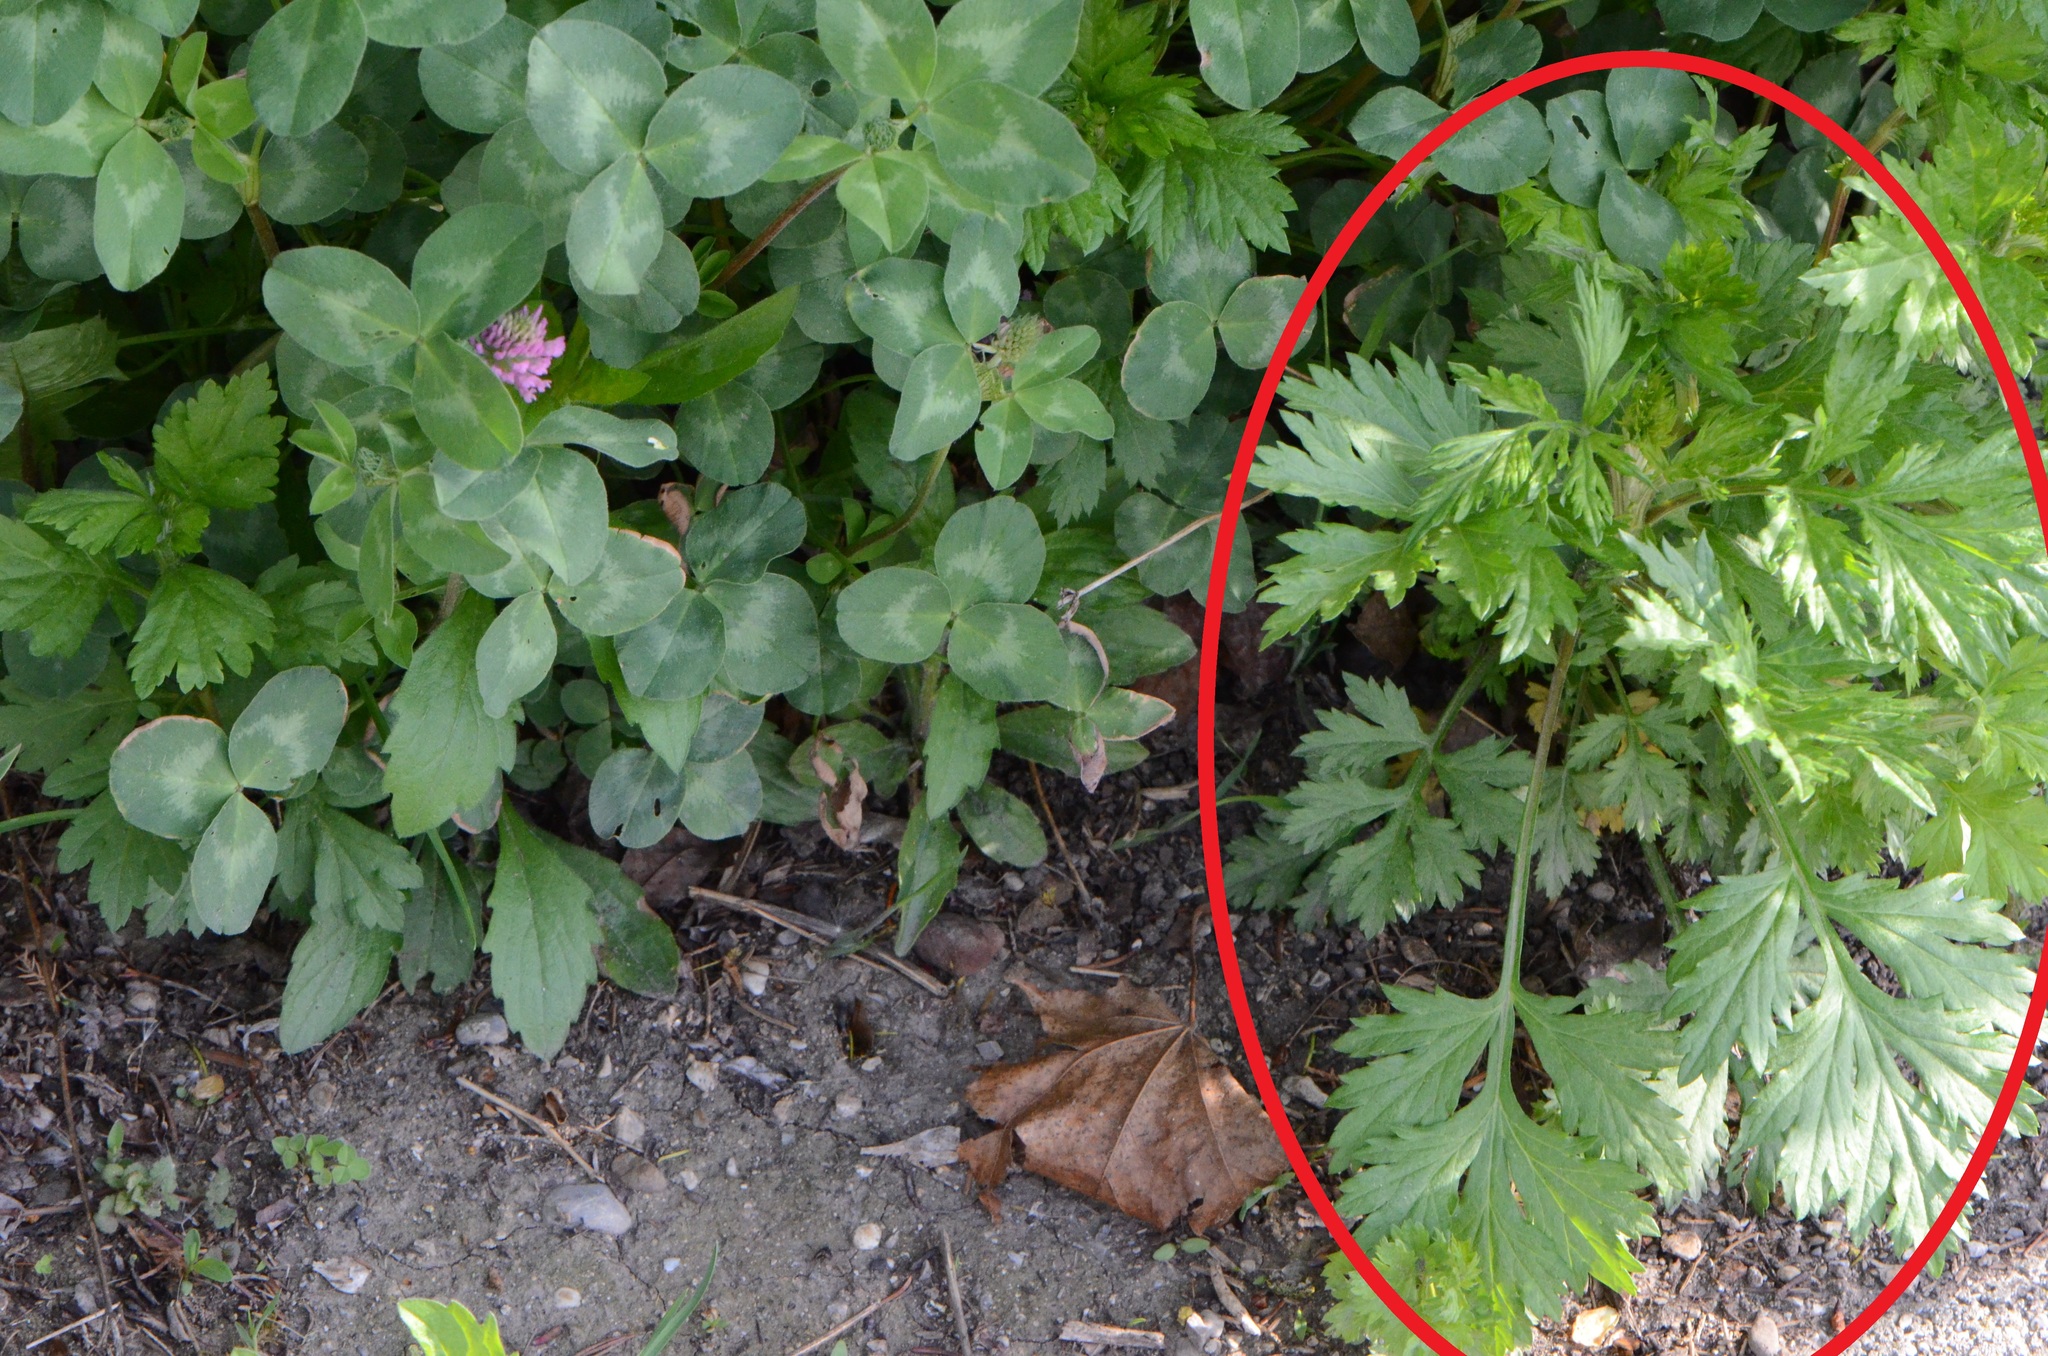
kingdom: Plantae
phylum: Tracheophyta
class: Magnoliopsida
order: Asterales
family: Asteraceae
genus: Artemisia
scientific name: Artemisia vulgaris
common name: Mugwort
